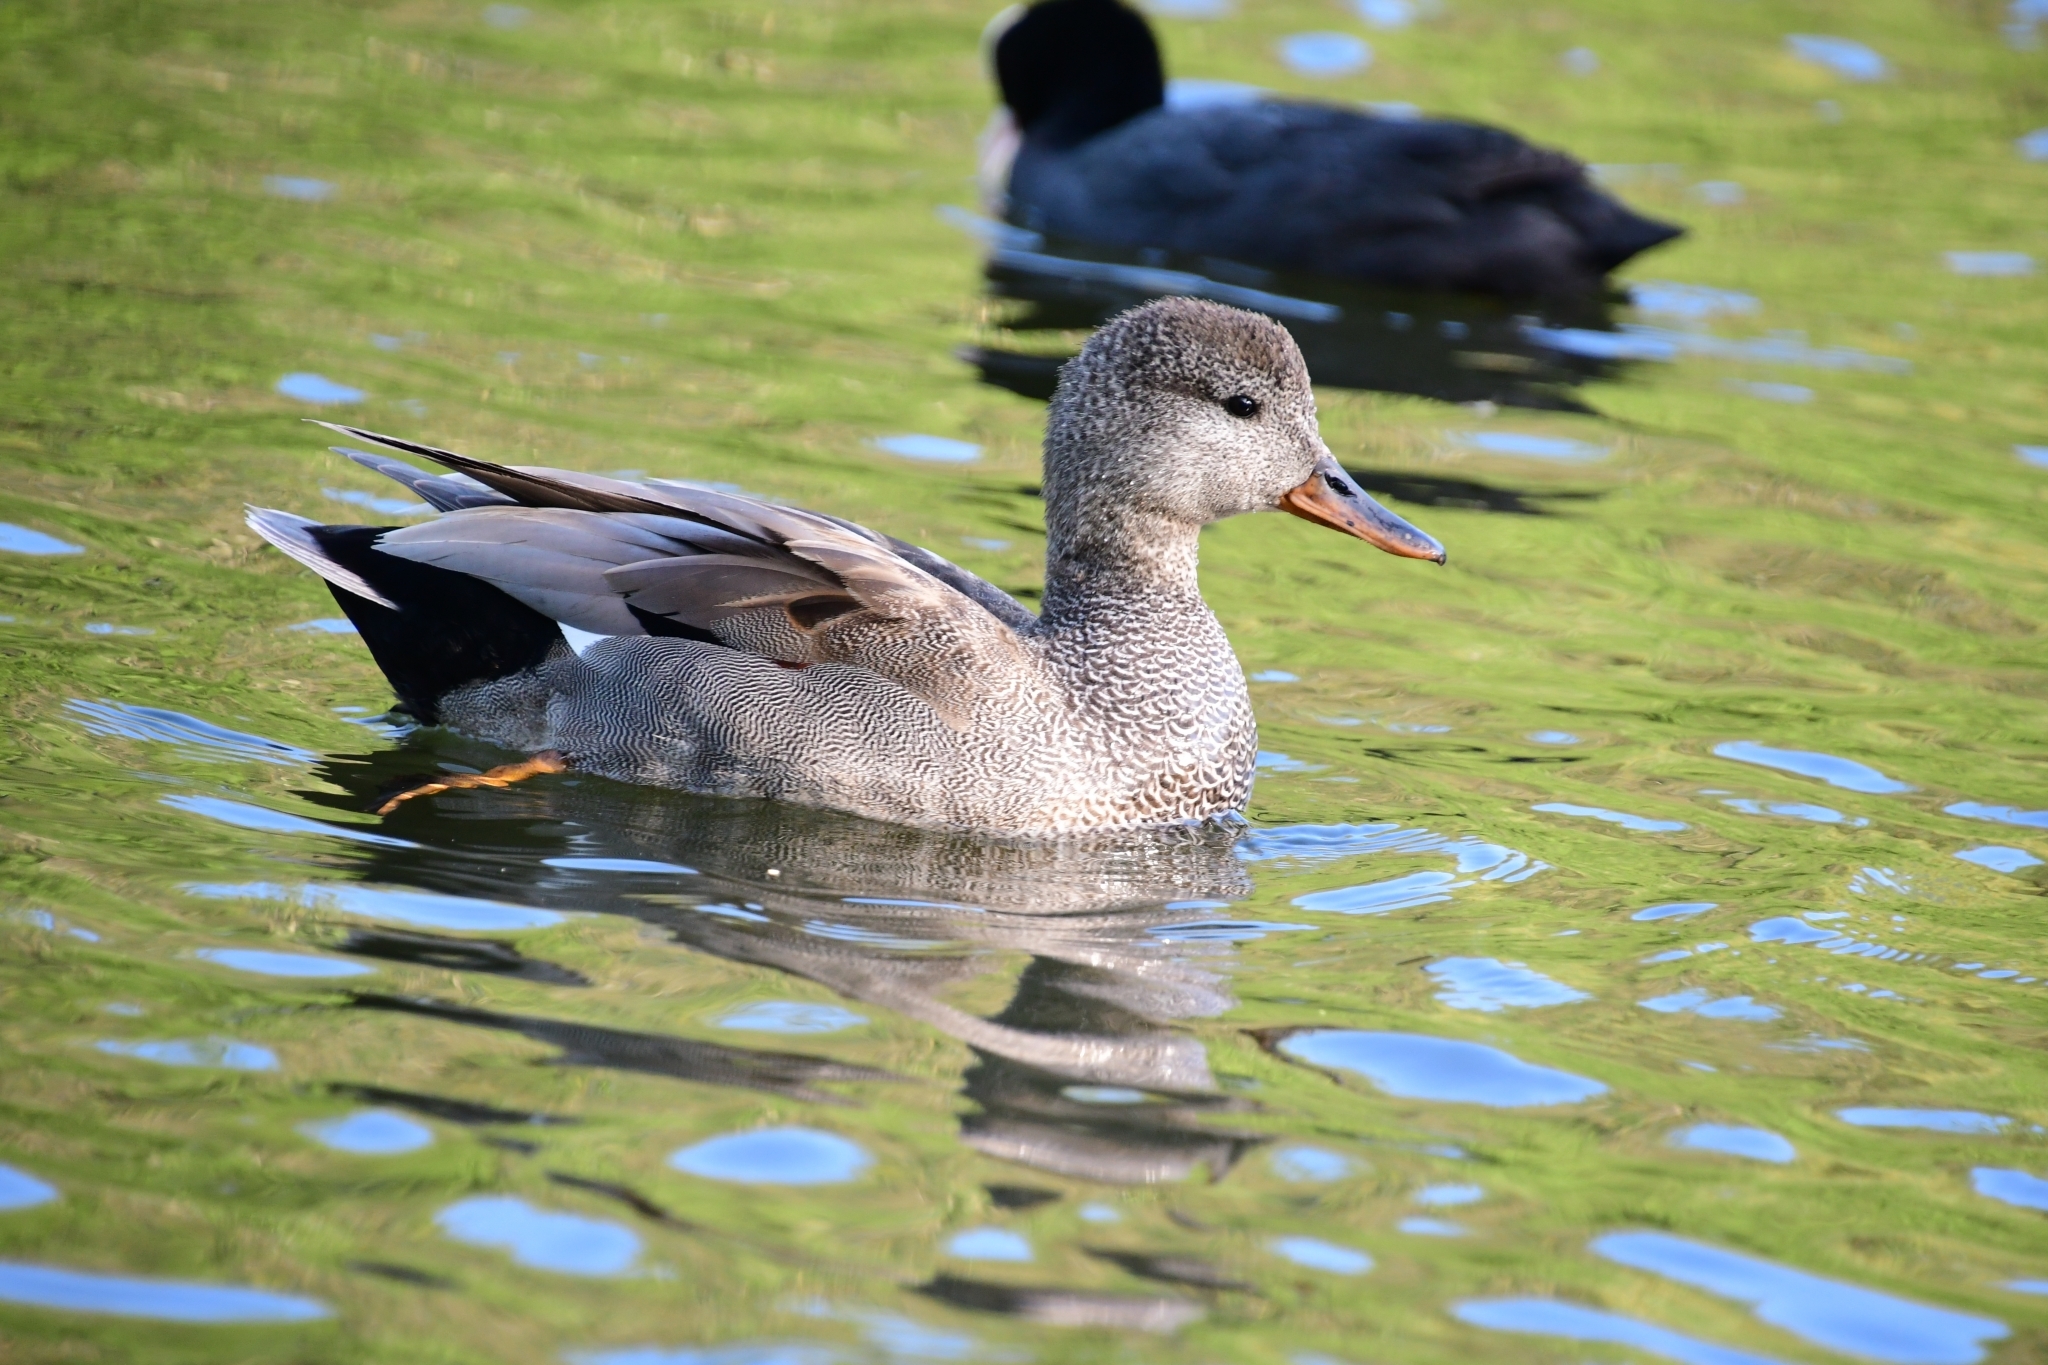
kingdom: Animalia
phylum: Chordata
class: Aves
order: Anseriformes
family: Anatidae
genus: Mareca
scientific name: Mareca strepera
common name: Gadwall
